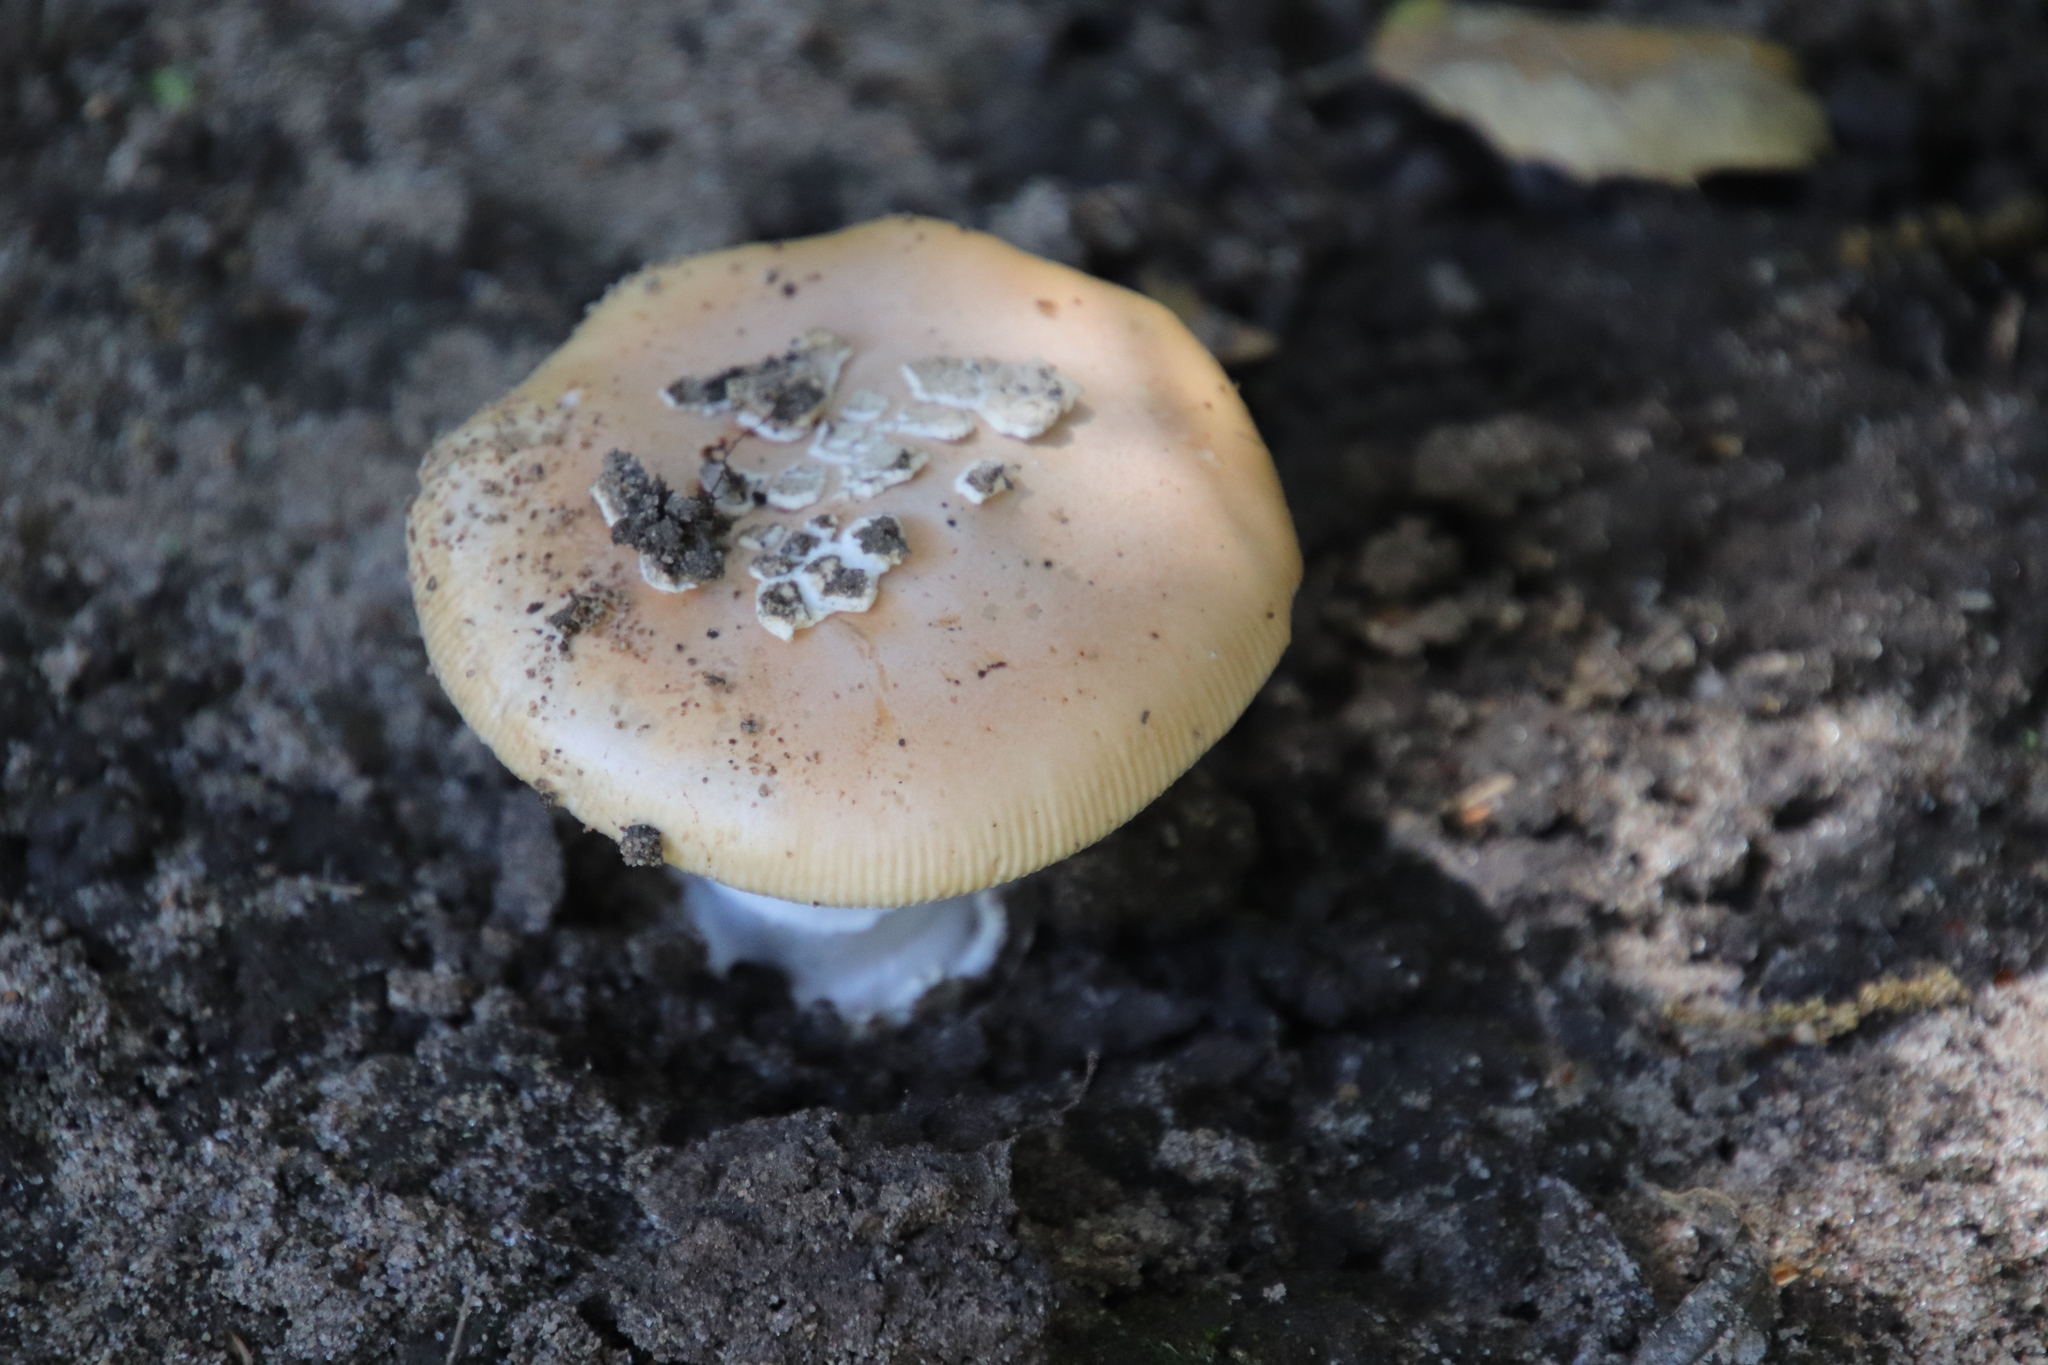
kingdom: Fungi
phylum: Basidiomycota
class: Agaricomycetes
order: Agaricales
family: Amanitaceae
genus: Amanita
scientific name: Amanita velosa
